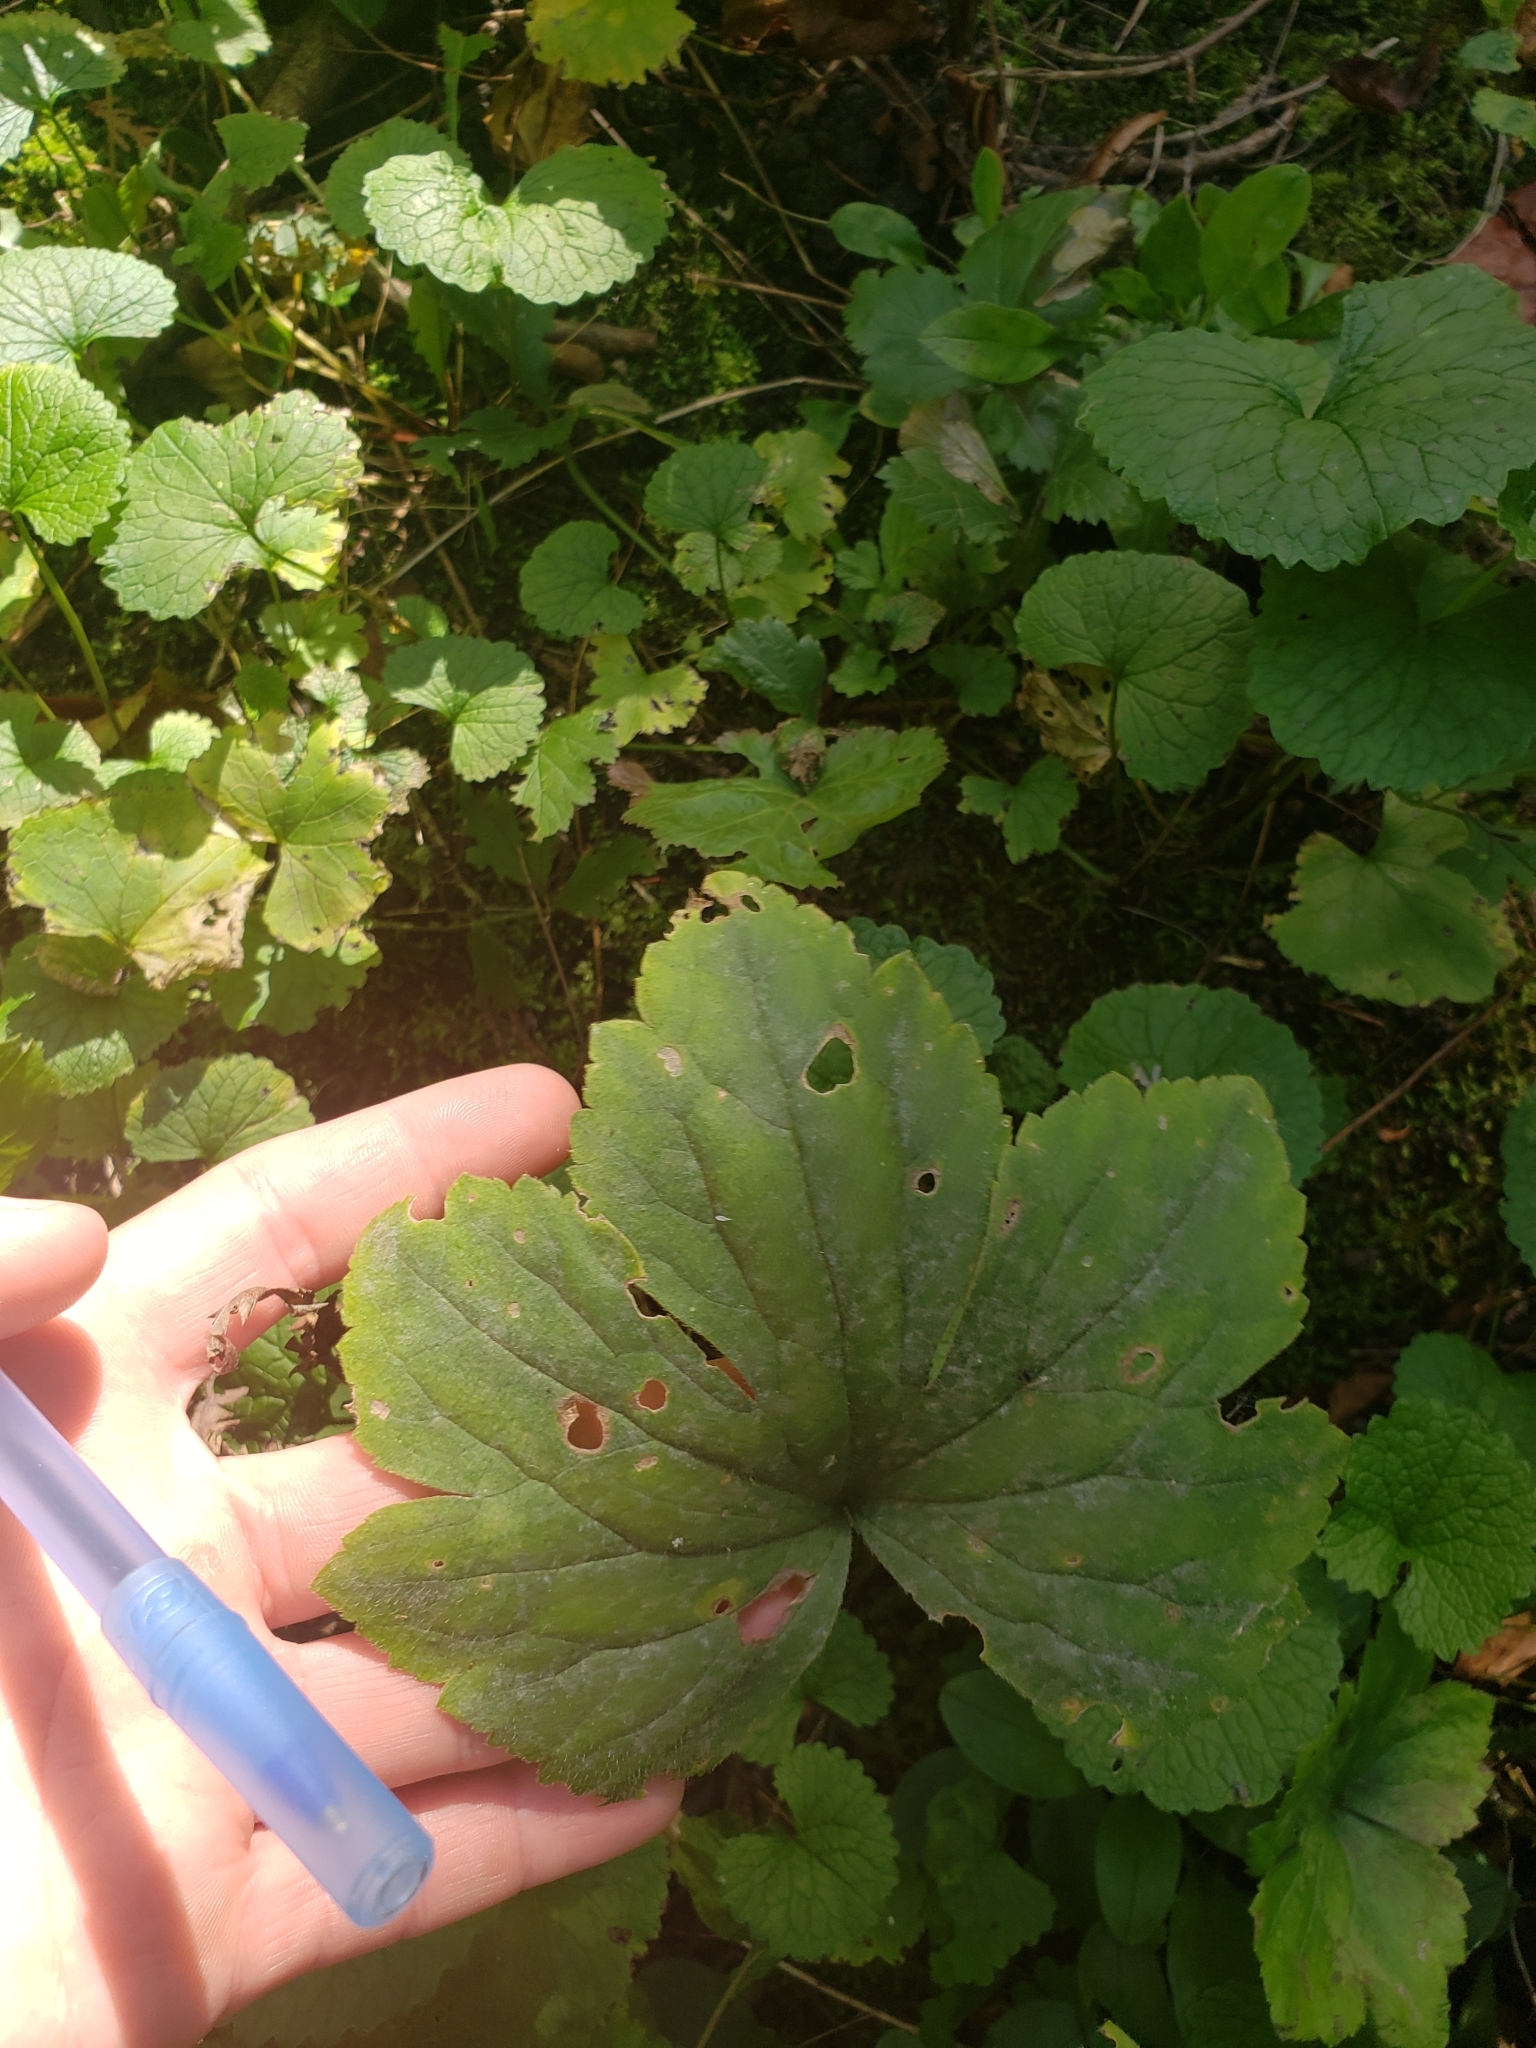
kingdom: Plantae
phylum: Tracheophyta
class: Magnoliopsida
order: Ranunculales
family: Ranunculaceae
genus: Ranunculus
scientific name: Ranunculus recurvatus
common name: Blisterwort
